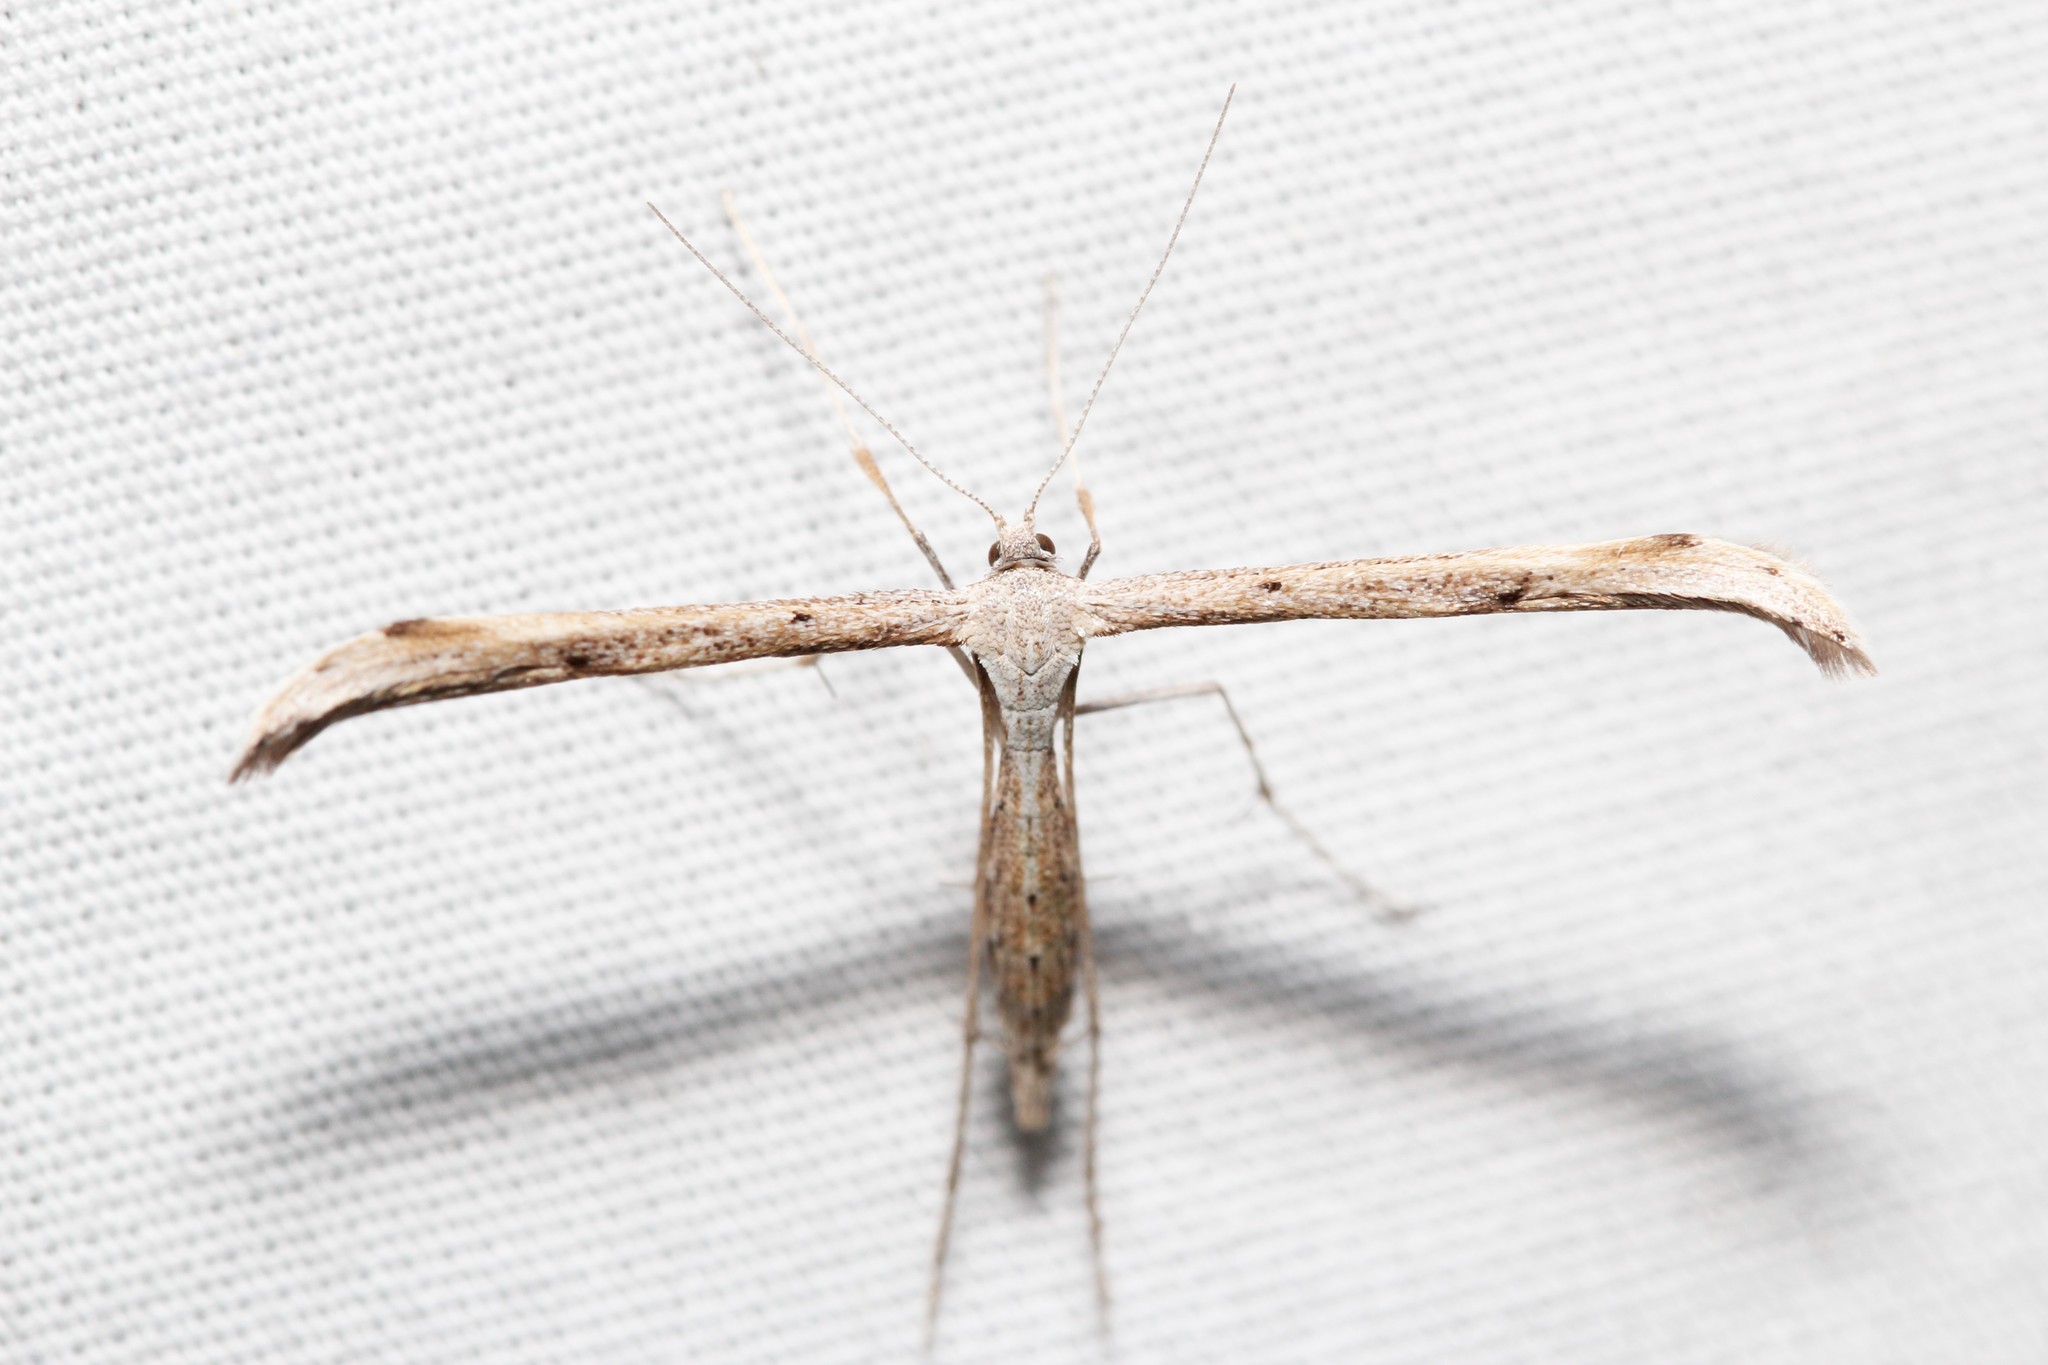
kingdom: Animalia
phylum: Arthropoda
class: Insecta
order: Lepidoptera
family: Pterophoridae
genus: Emmelina
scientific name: Emmelina monodactyla
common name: Common plume
